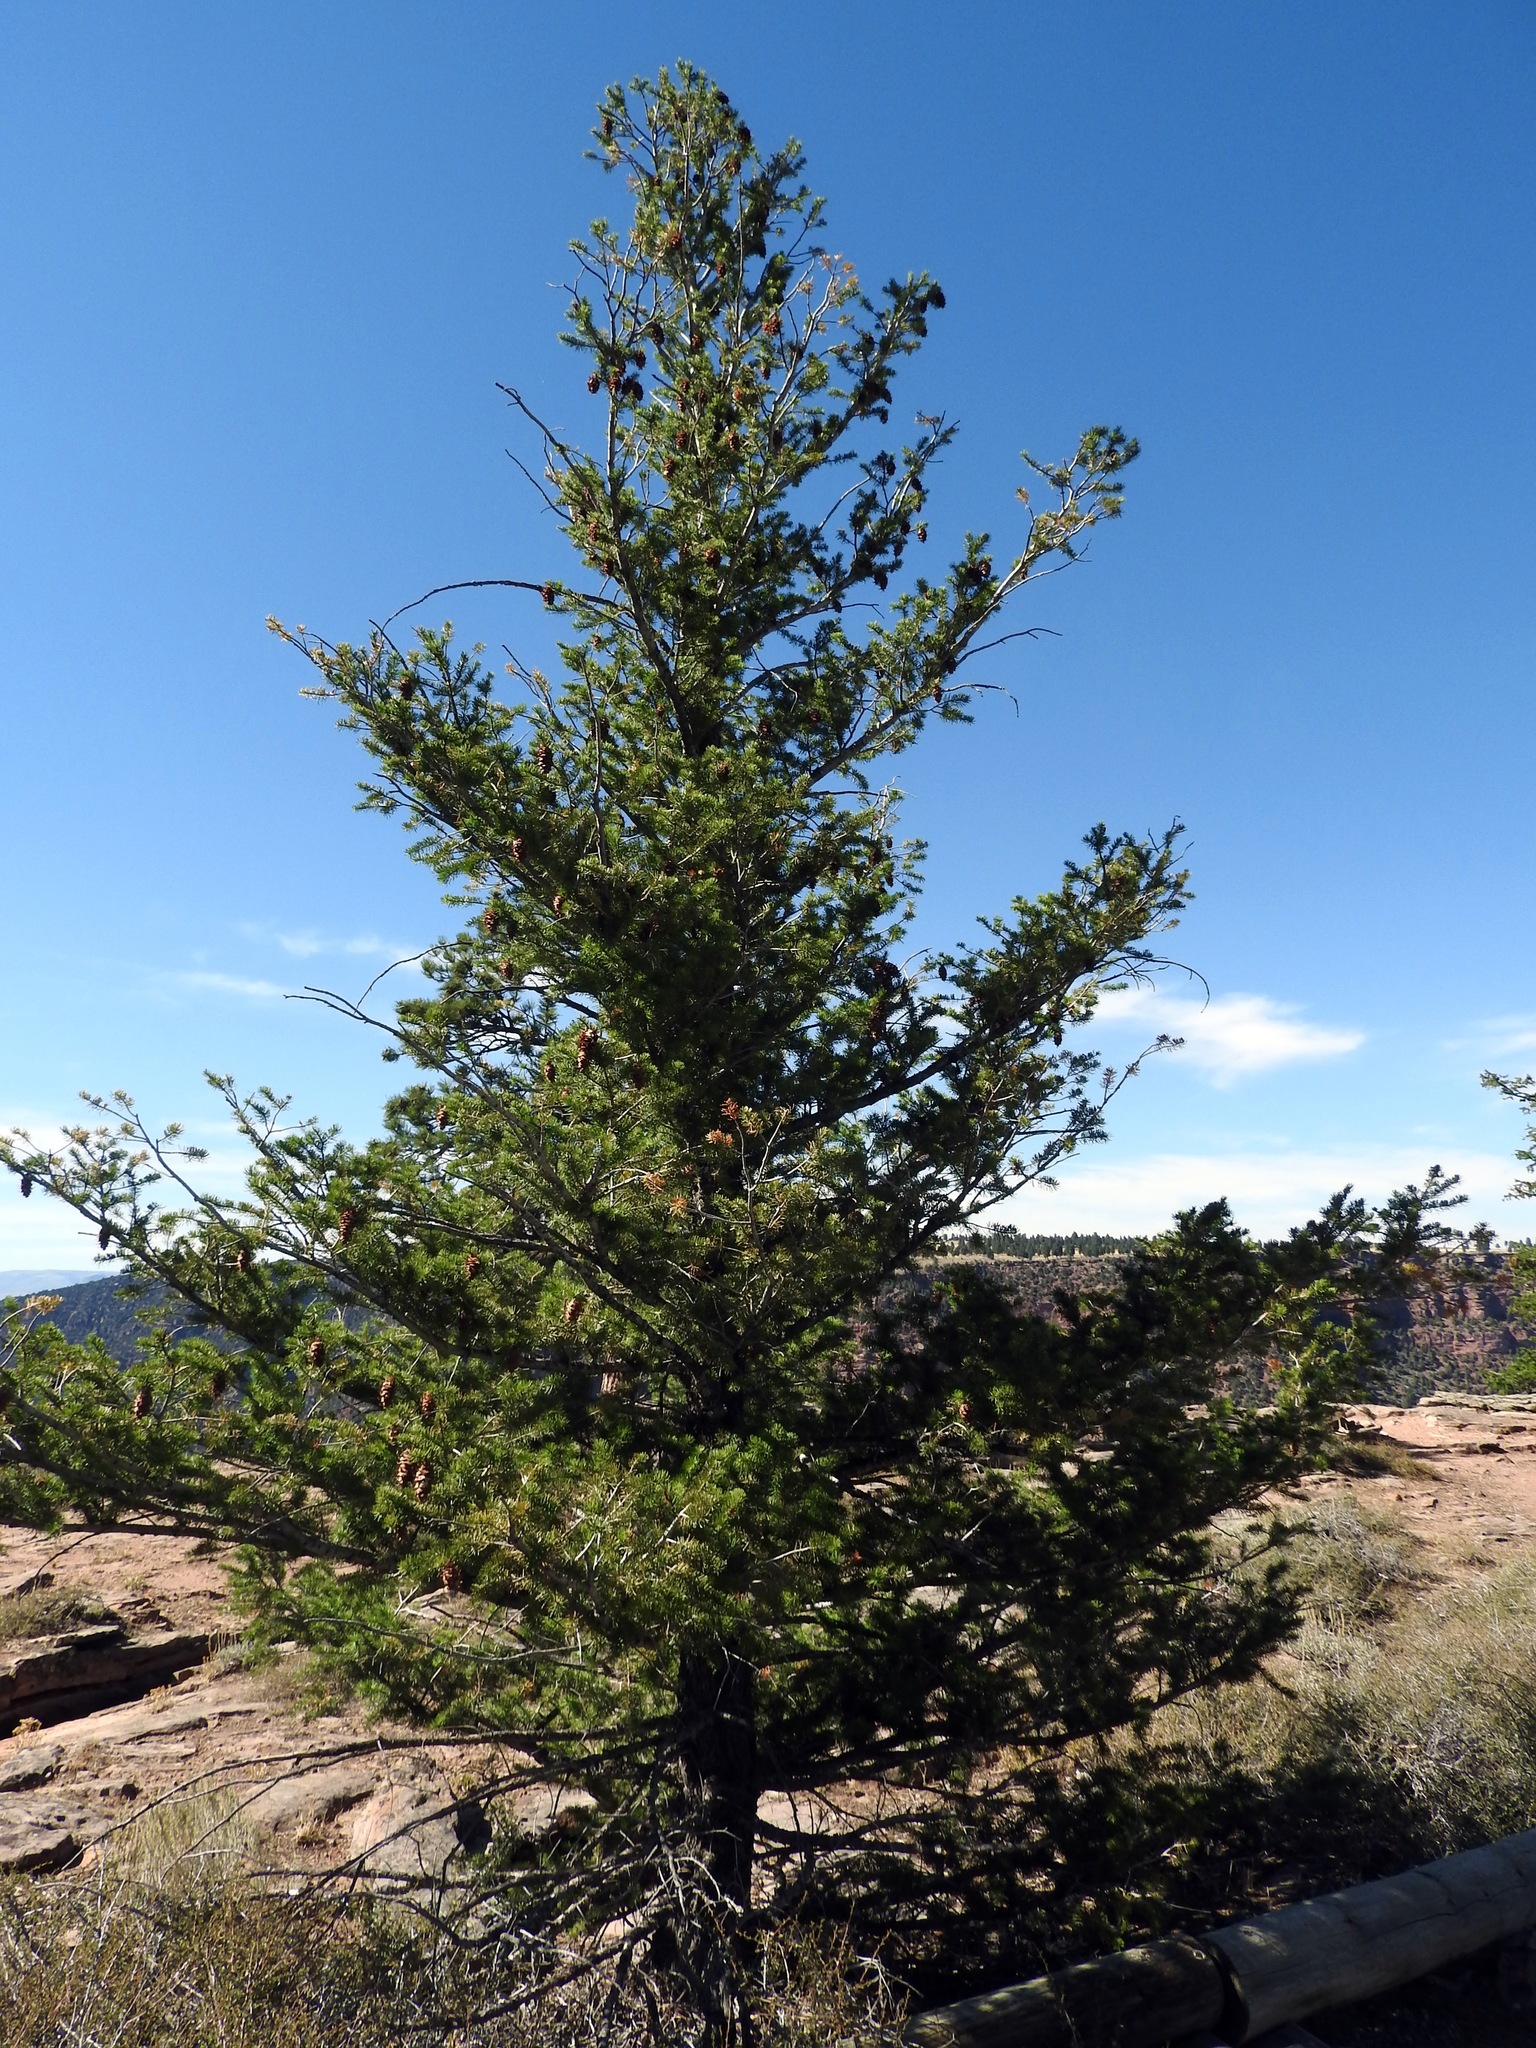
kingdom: Plantae
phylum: Tracheophyta
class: Pinopsida
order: Pinales
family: Pinaceae
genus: Pseudotsuga
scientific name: Pseudotsuga menziesii
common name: Douglas fir
